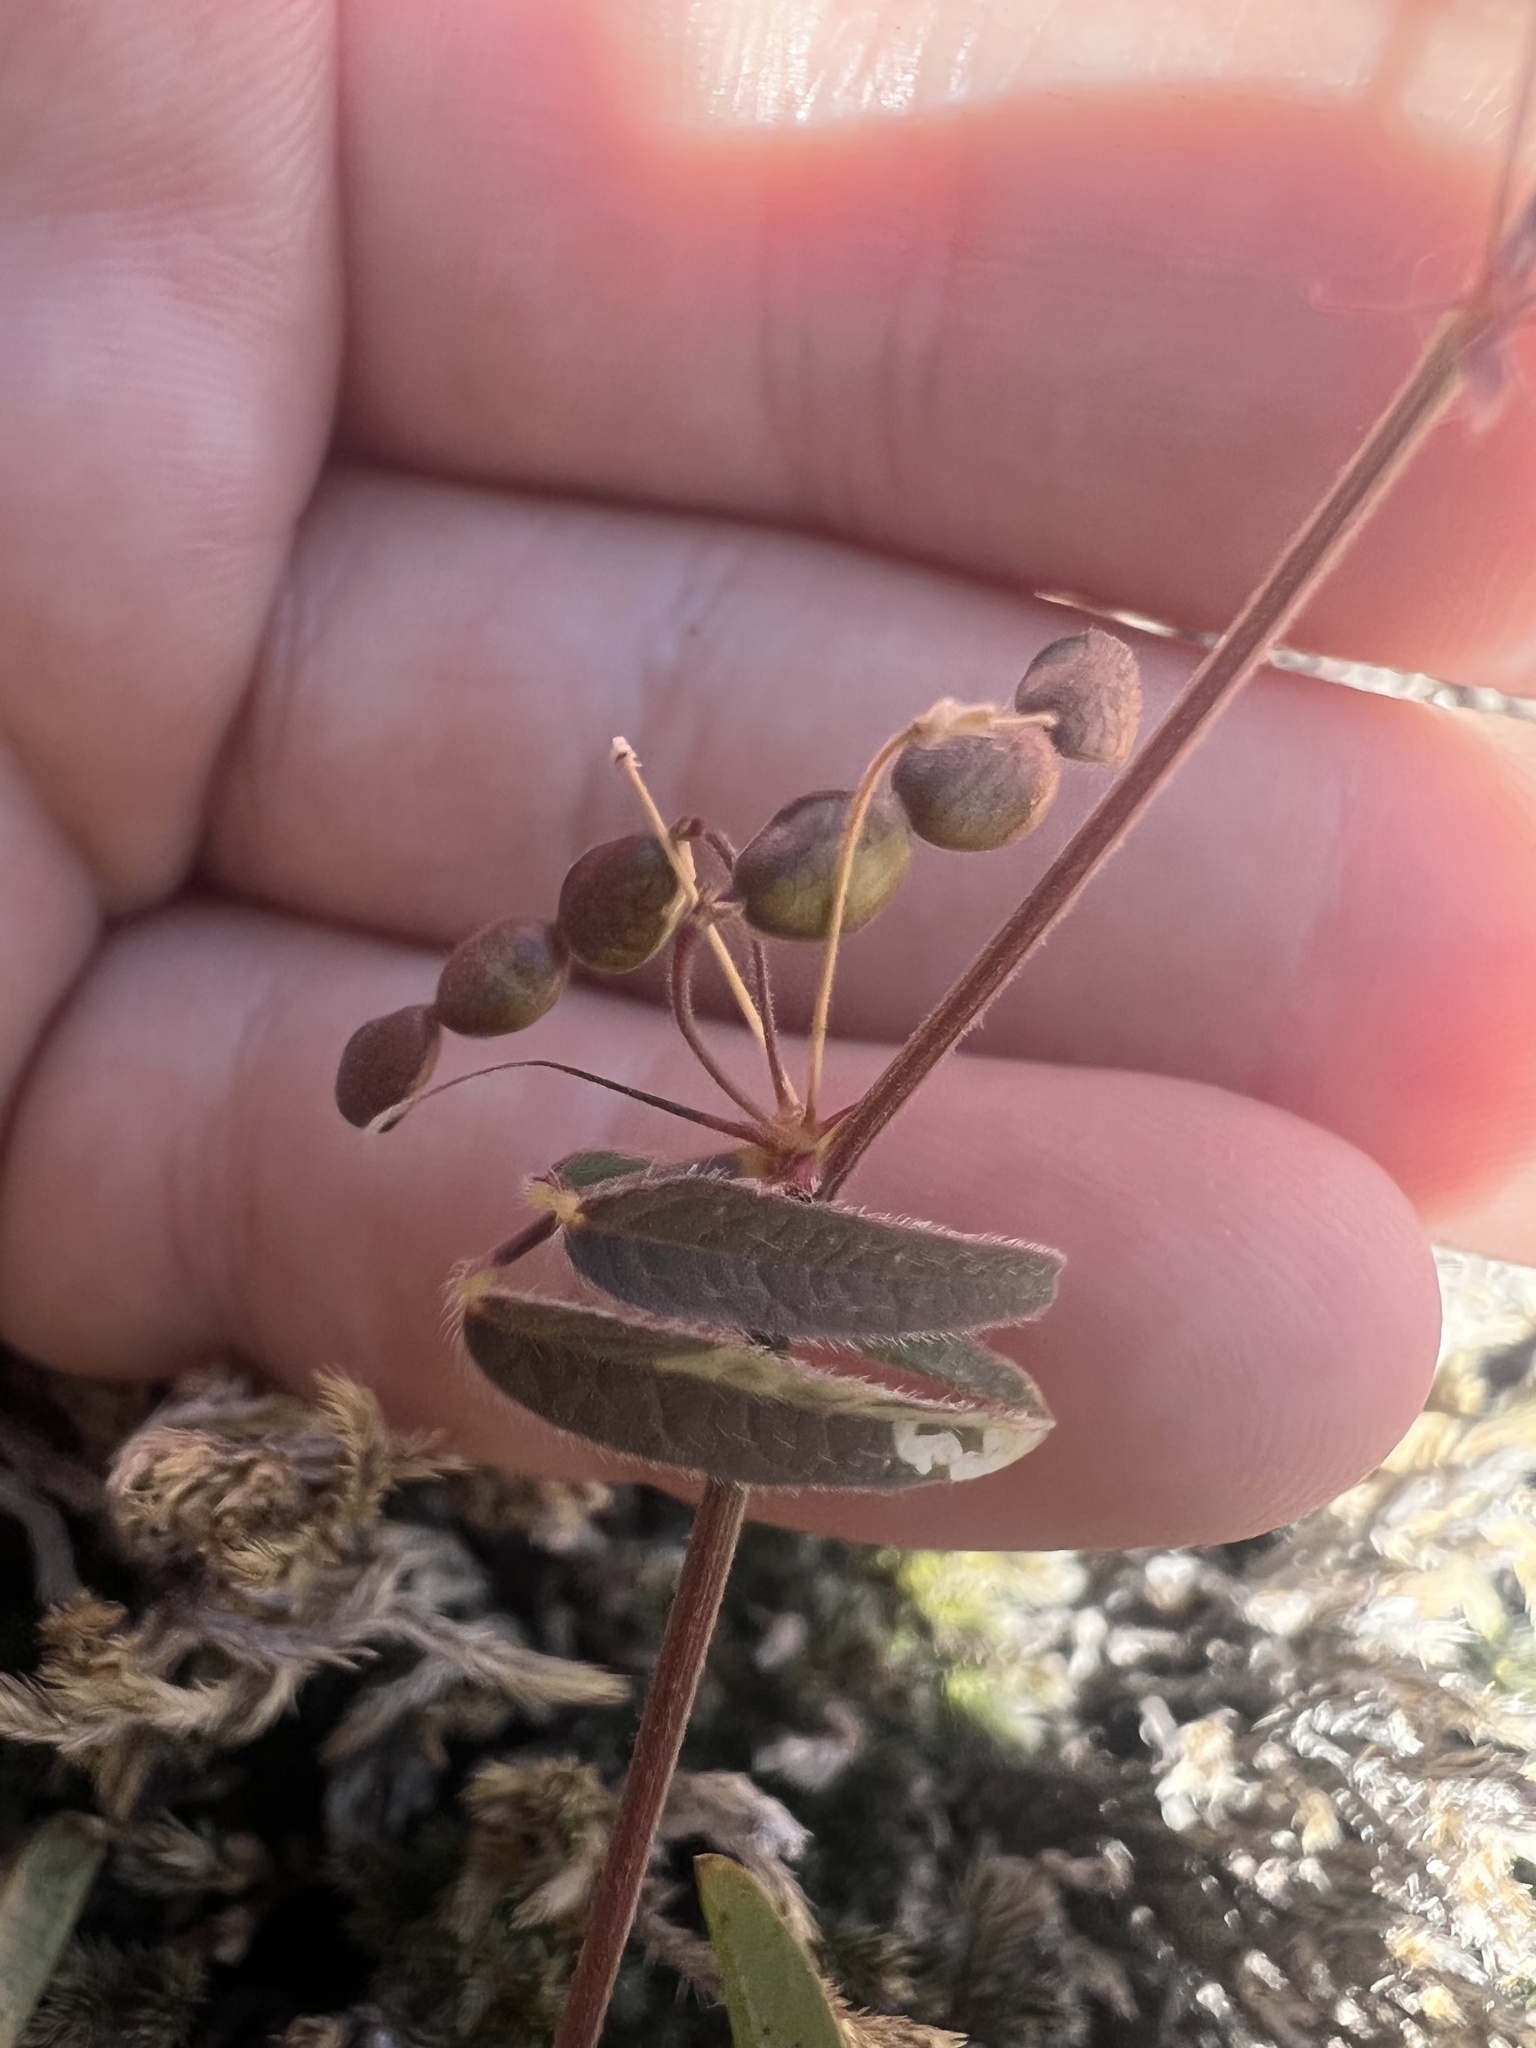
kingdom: Plantae
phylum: Tracheophyta
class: Magnoliopsida
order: Fabales
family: Fabaceae
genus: Desmodium
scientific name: Desmodium rosei
